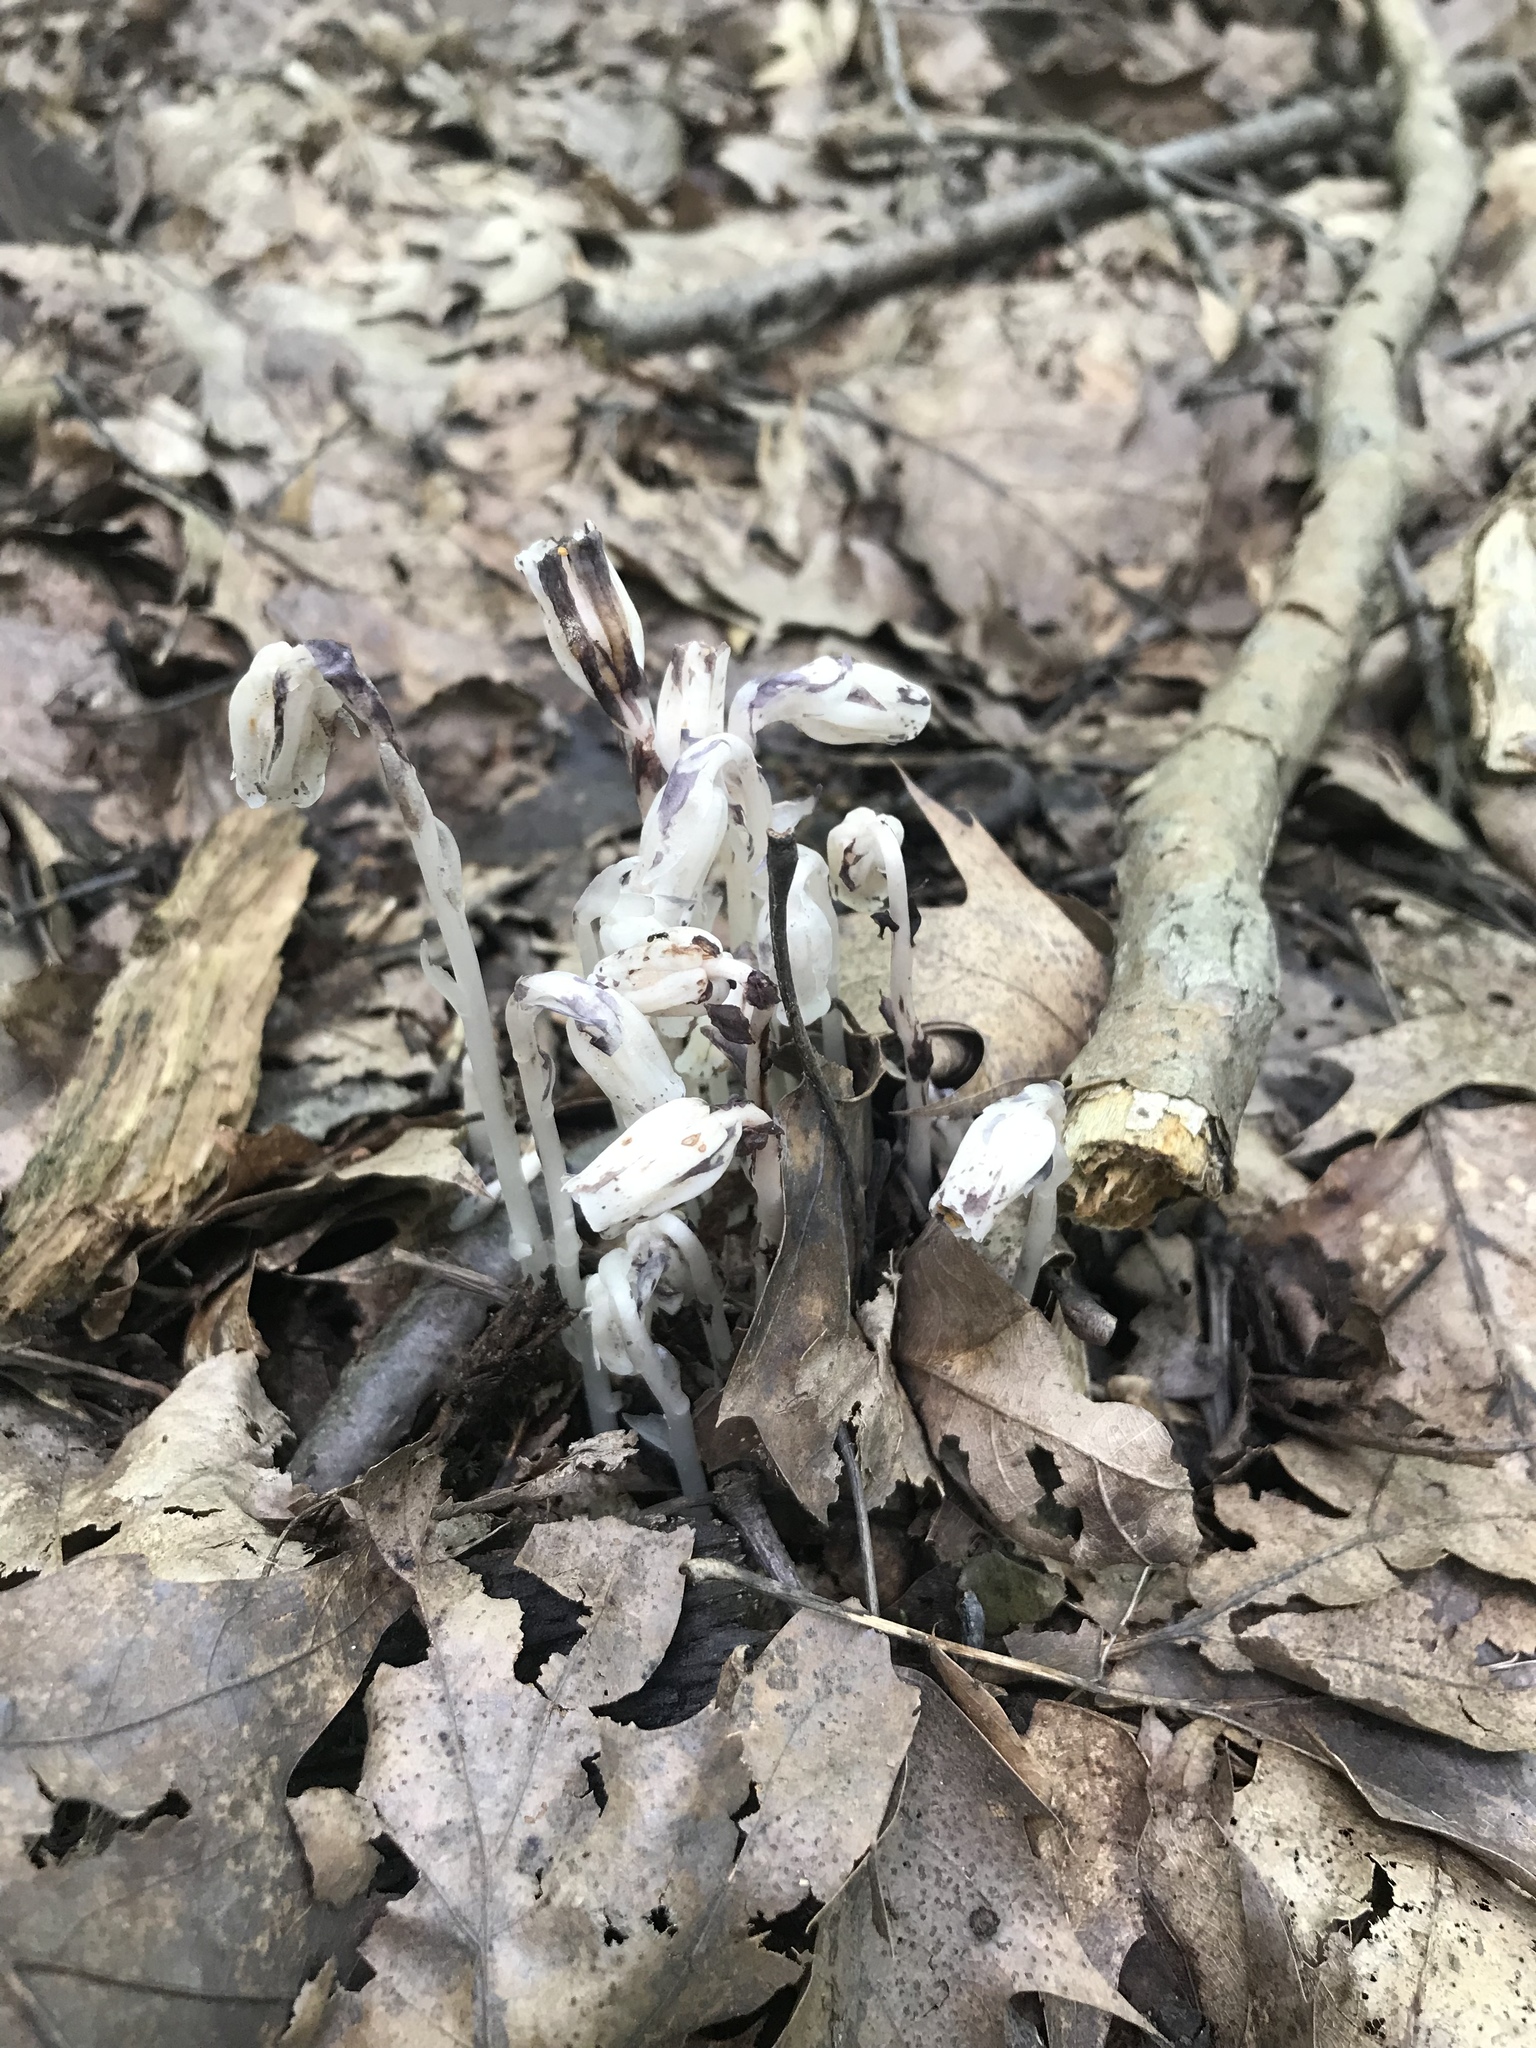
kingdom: Plantae
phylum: Tracheophyta
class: Magnoliopsida
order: Ericales
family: Ericaceae
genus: Monotropa
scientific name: Monotropa uniflora
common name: Convulsion root
